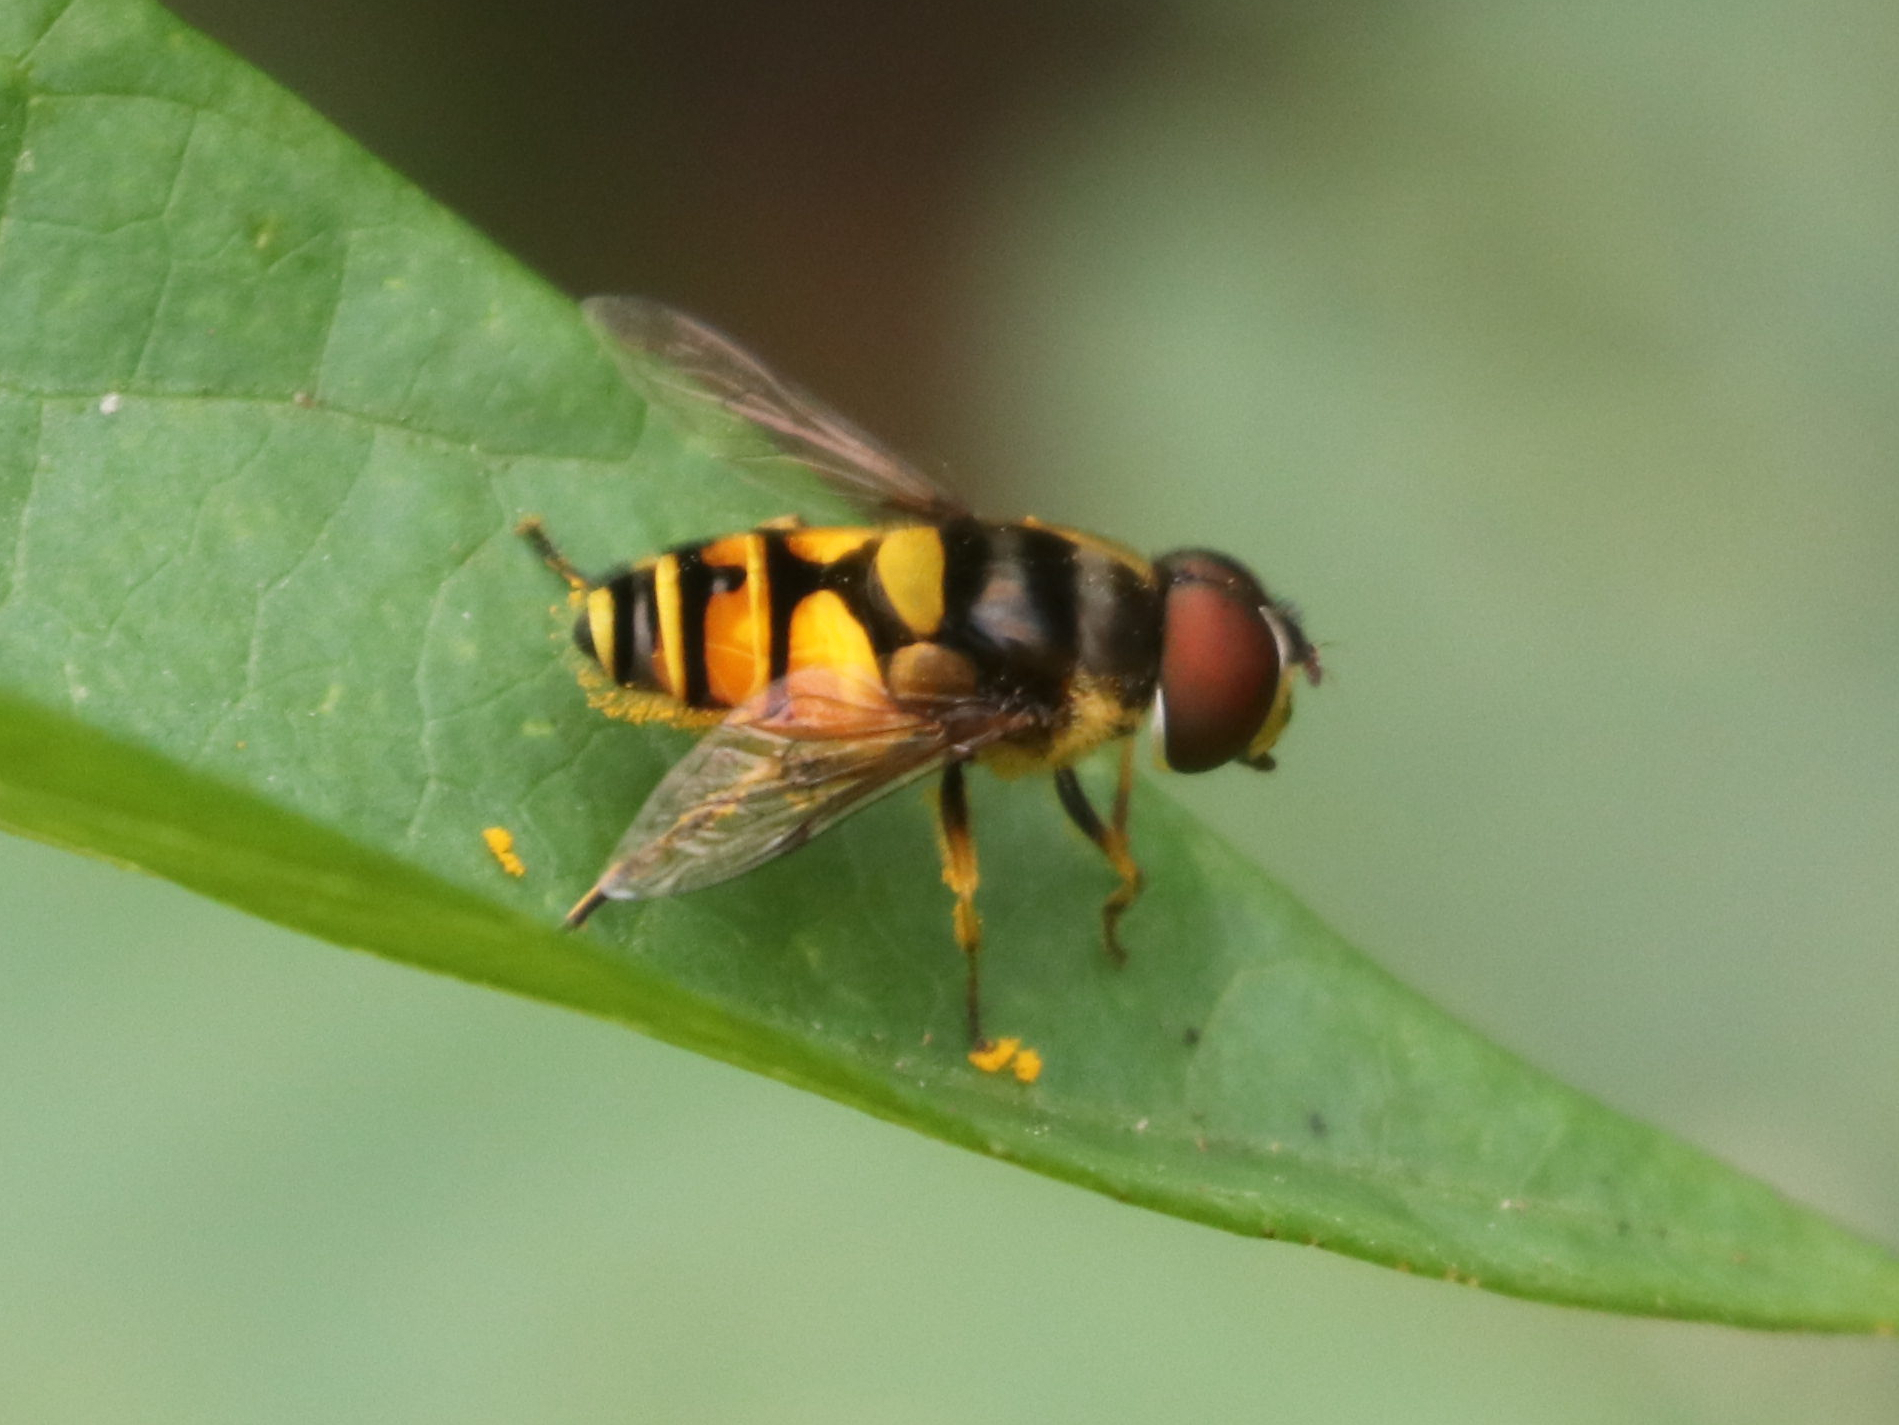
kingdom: Animalia
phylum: Arthropoda
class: Insecta
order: Diptera
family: Syrphidae
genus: Eristalis
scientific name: Eristalis transversa
